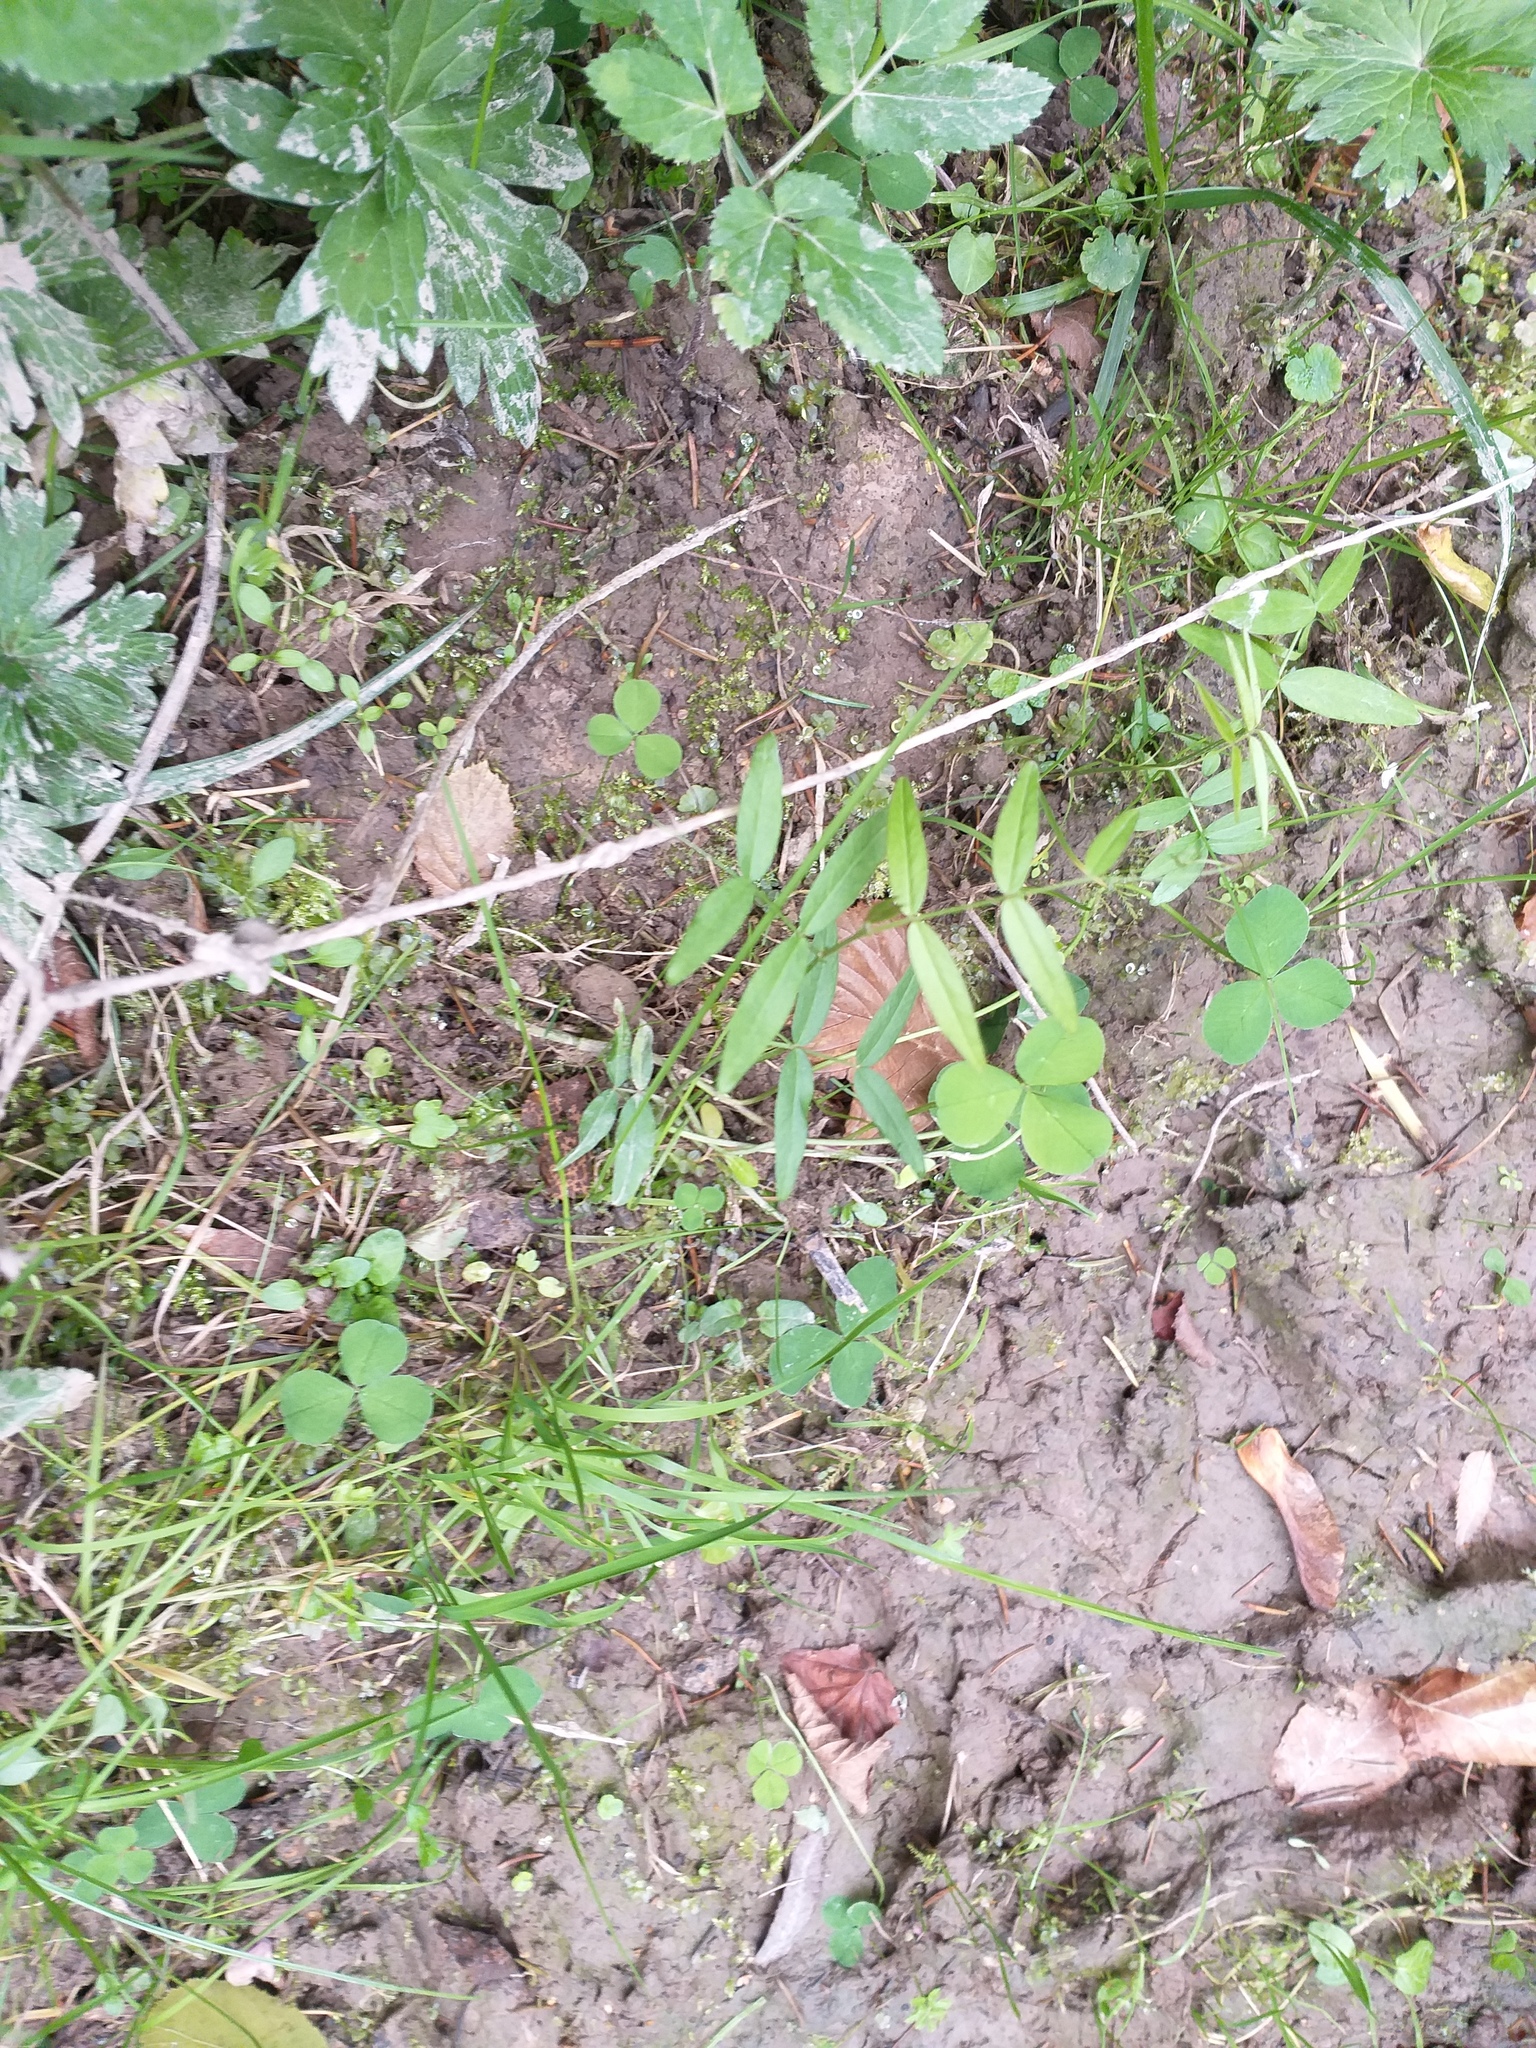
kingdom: Plantae
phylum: Tracheophyta
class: Magnoliopsida
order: Fabales
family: Fabaceae
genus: Vicia
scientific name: Vicia sepium
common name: Bush vetch
